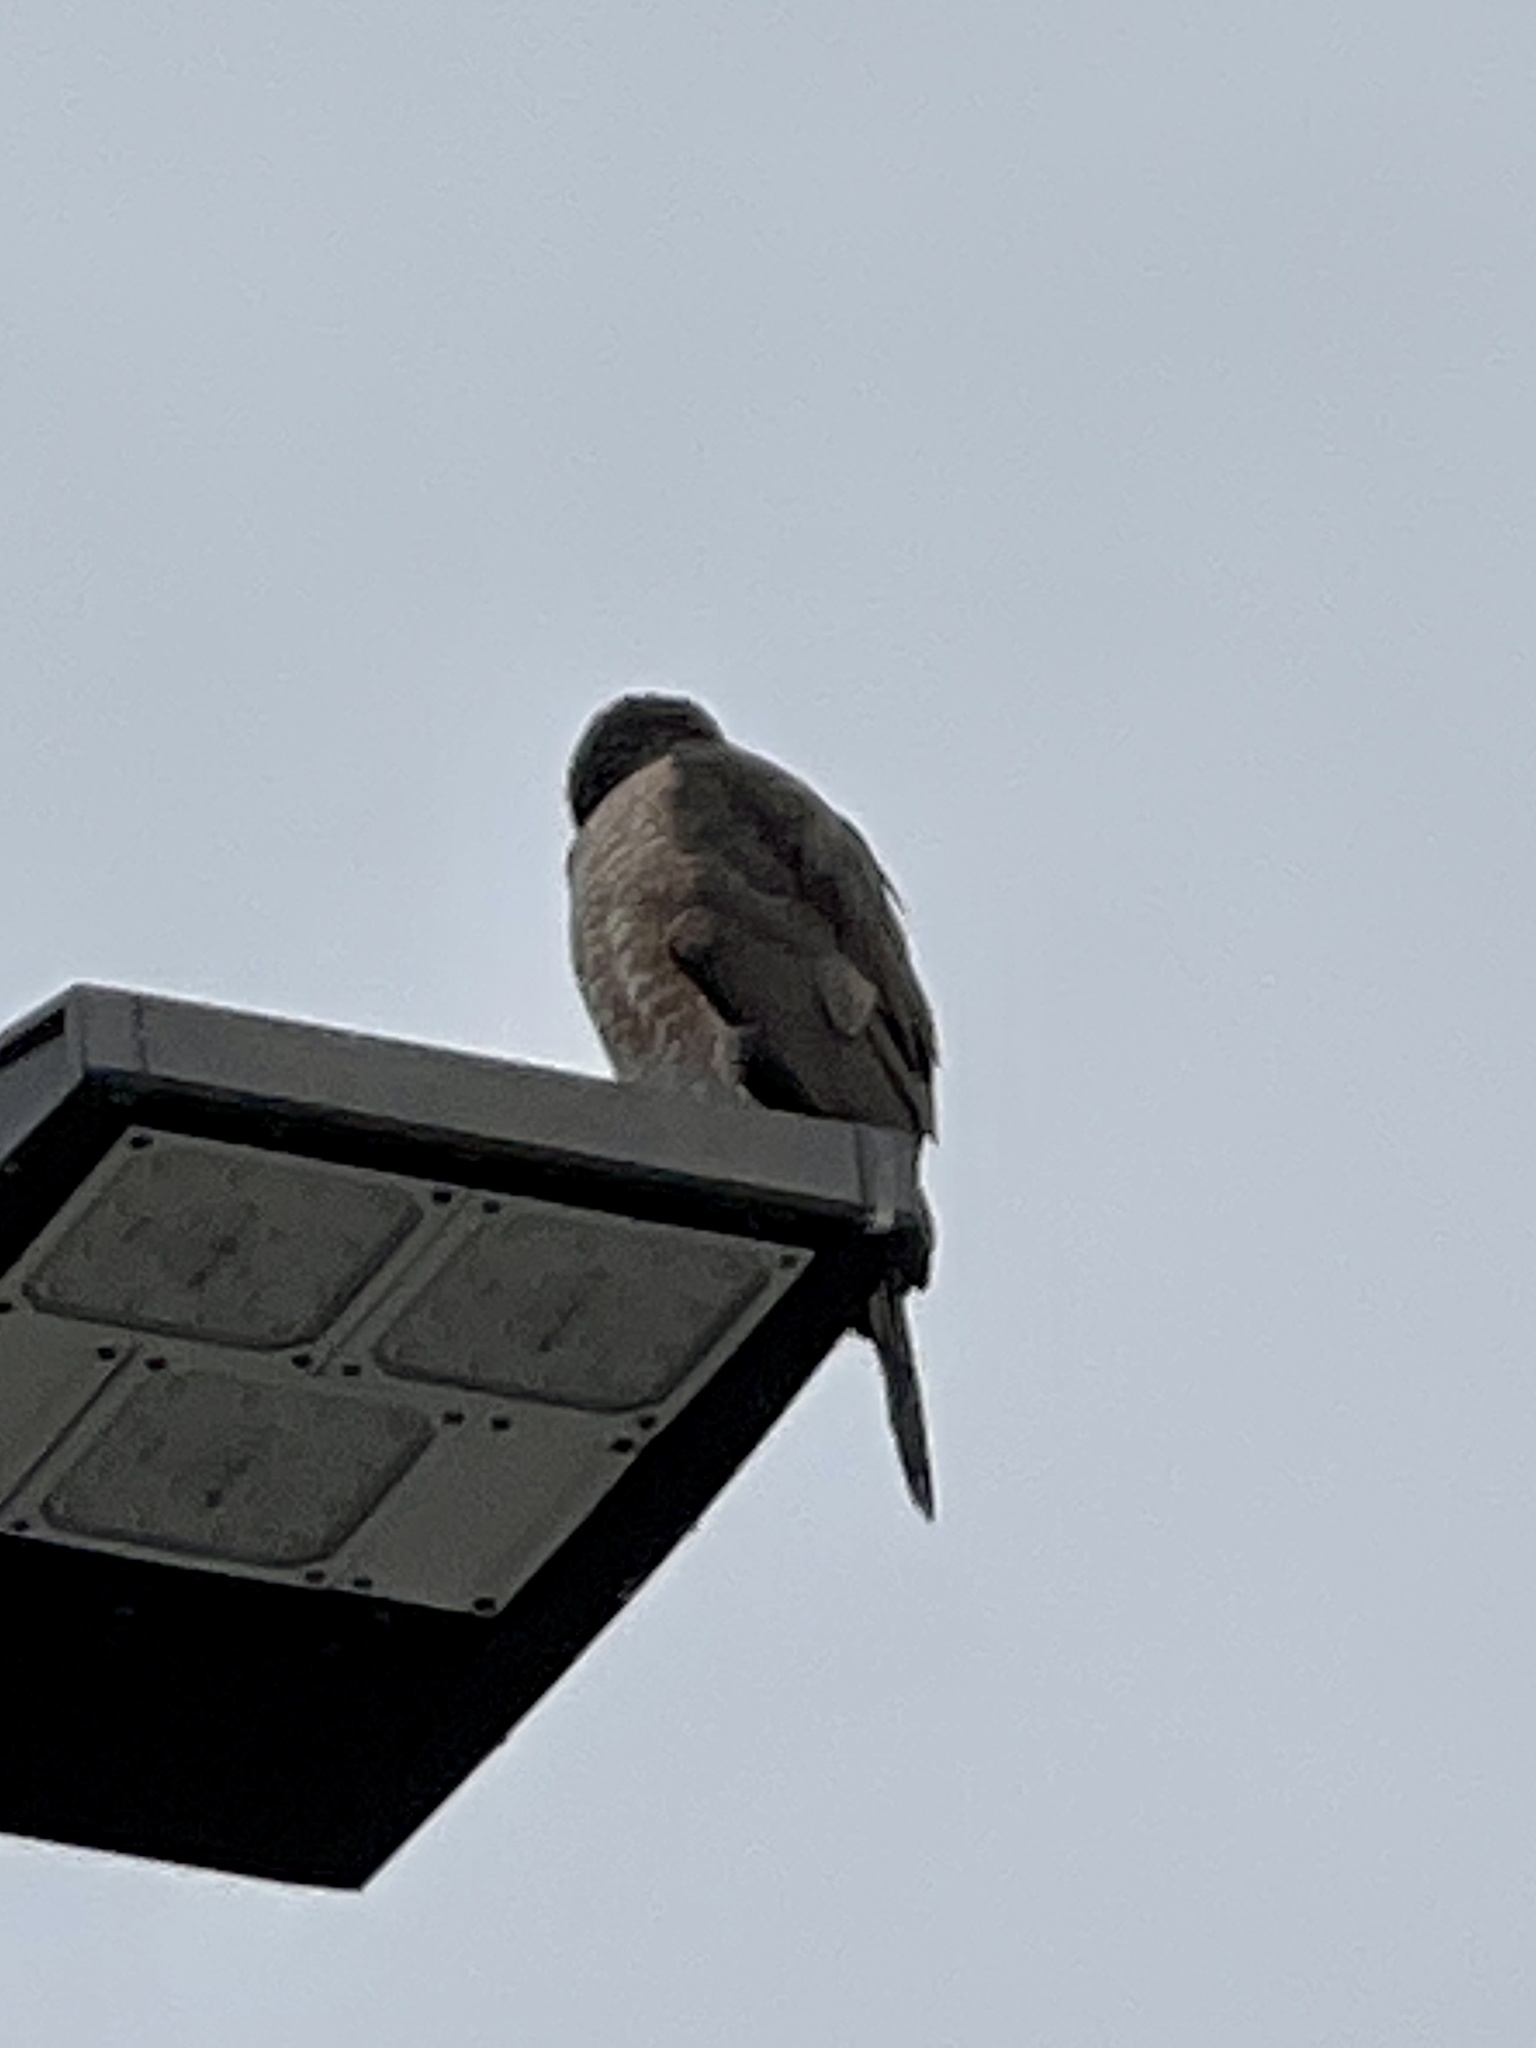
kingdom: Animalia
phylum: Chordata
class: Aves
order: Accipitriformes
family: Accipitridae
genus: Accipiter
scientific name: Accipiter cooperii
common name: Cooper's hawk
